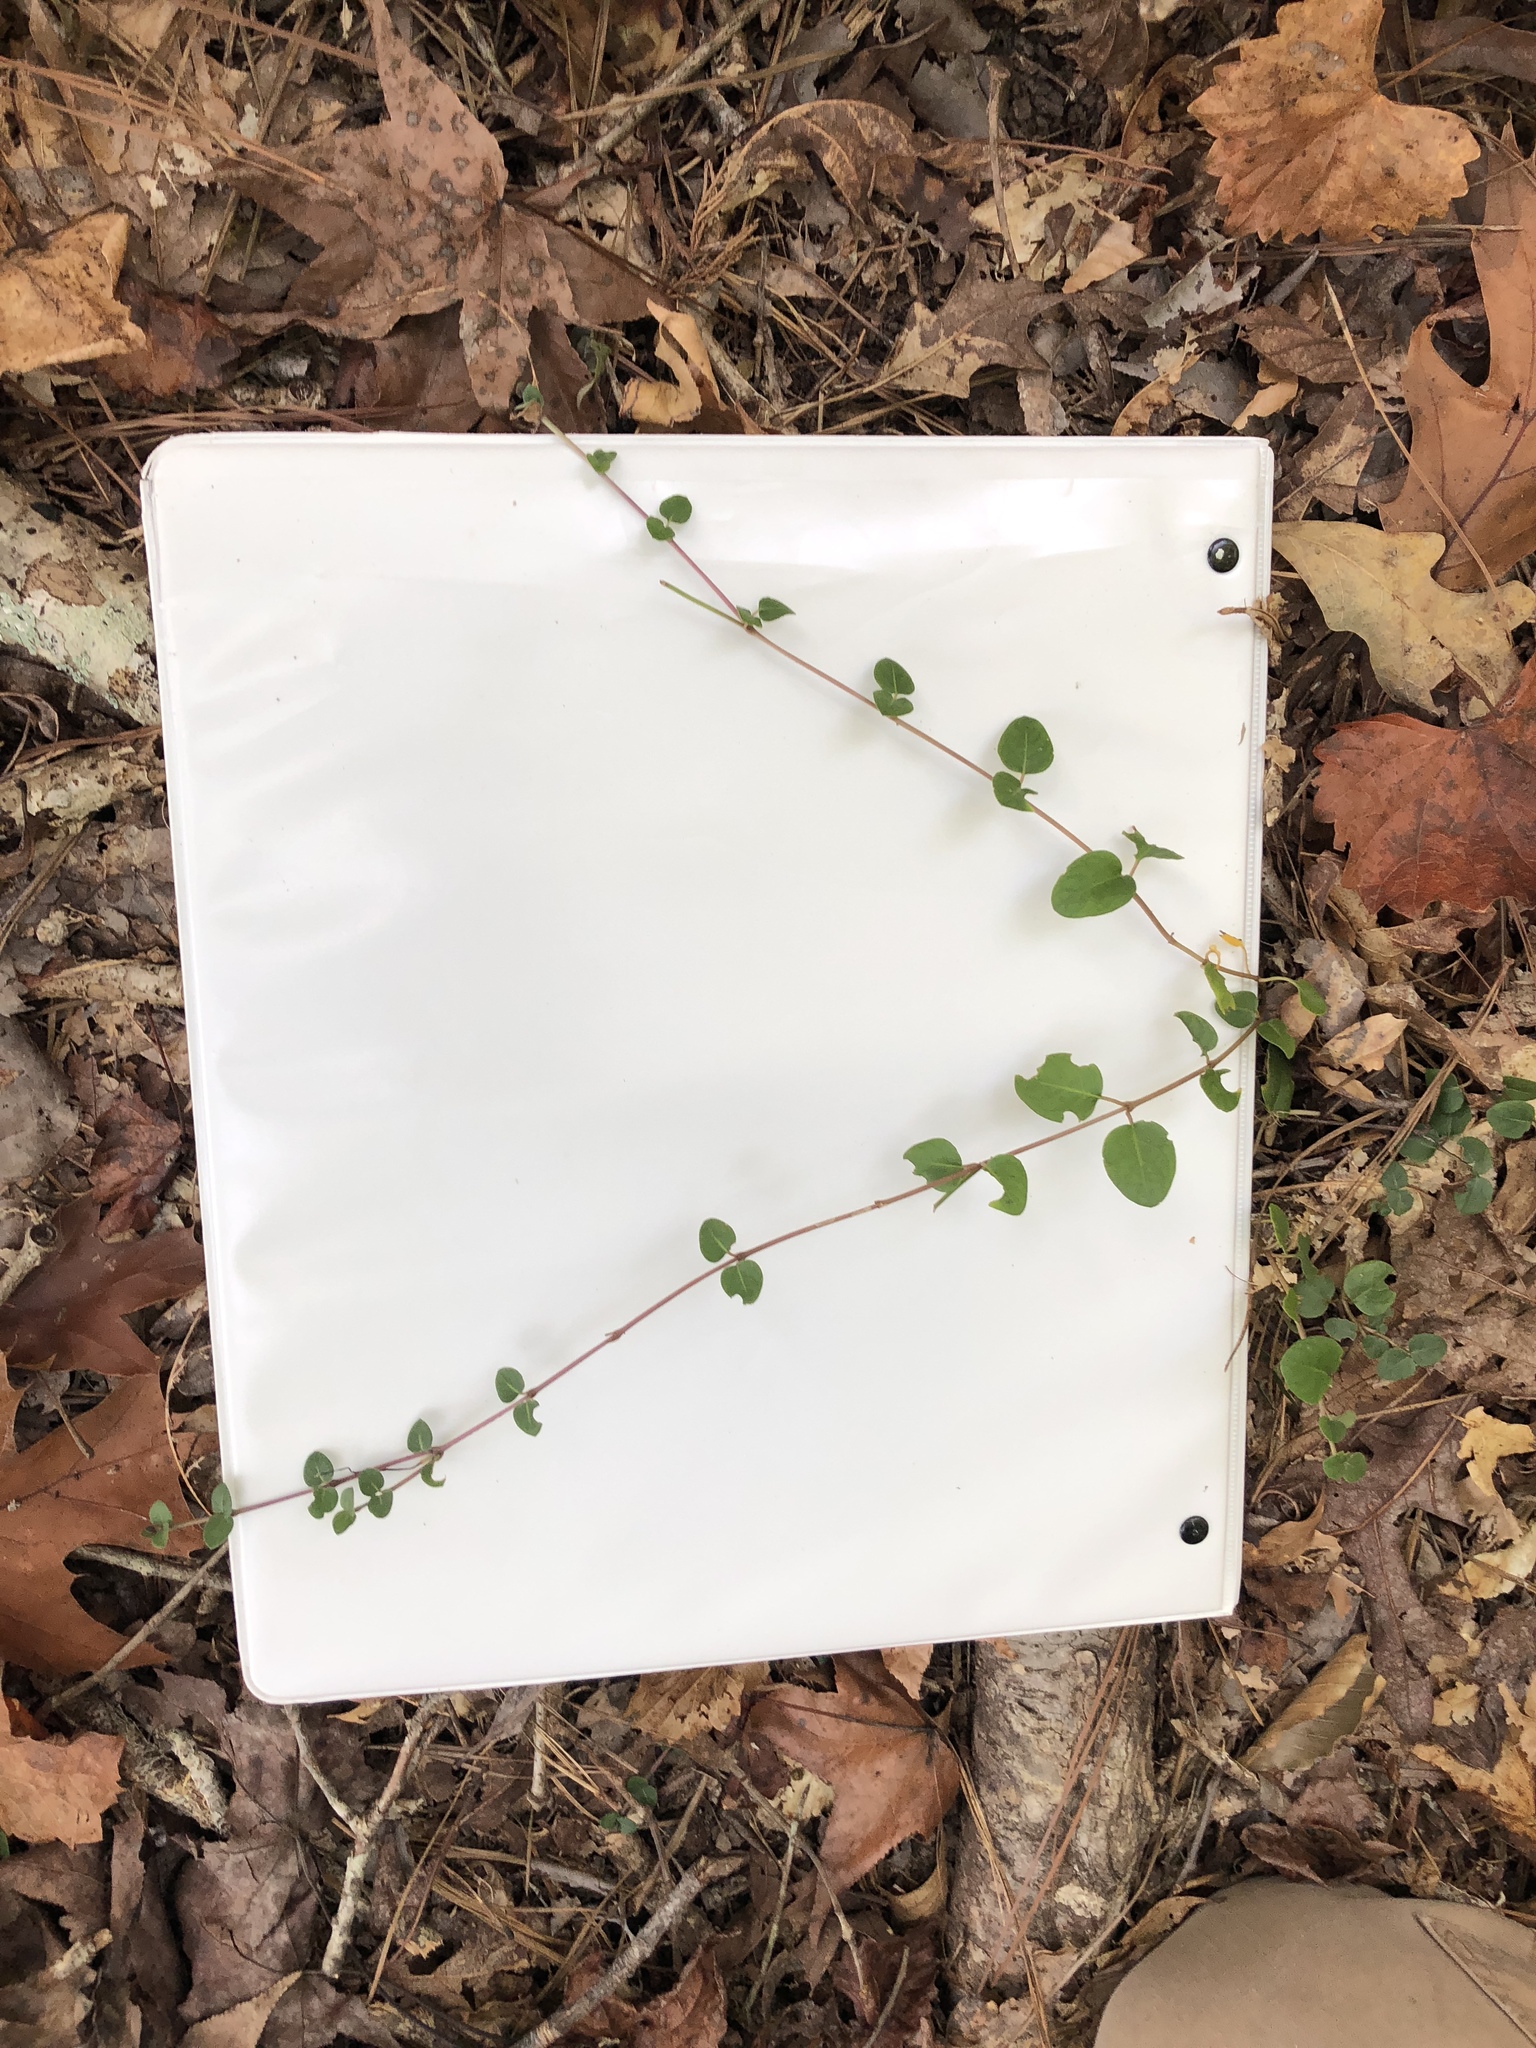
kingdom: Plantae
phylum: Tracheophyta
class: Magnoliopsida
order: Gentianales
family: Rubiaceae
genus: Mitchella
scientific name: Mitchella repens
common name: Partridge-berry
